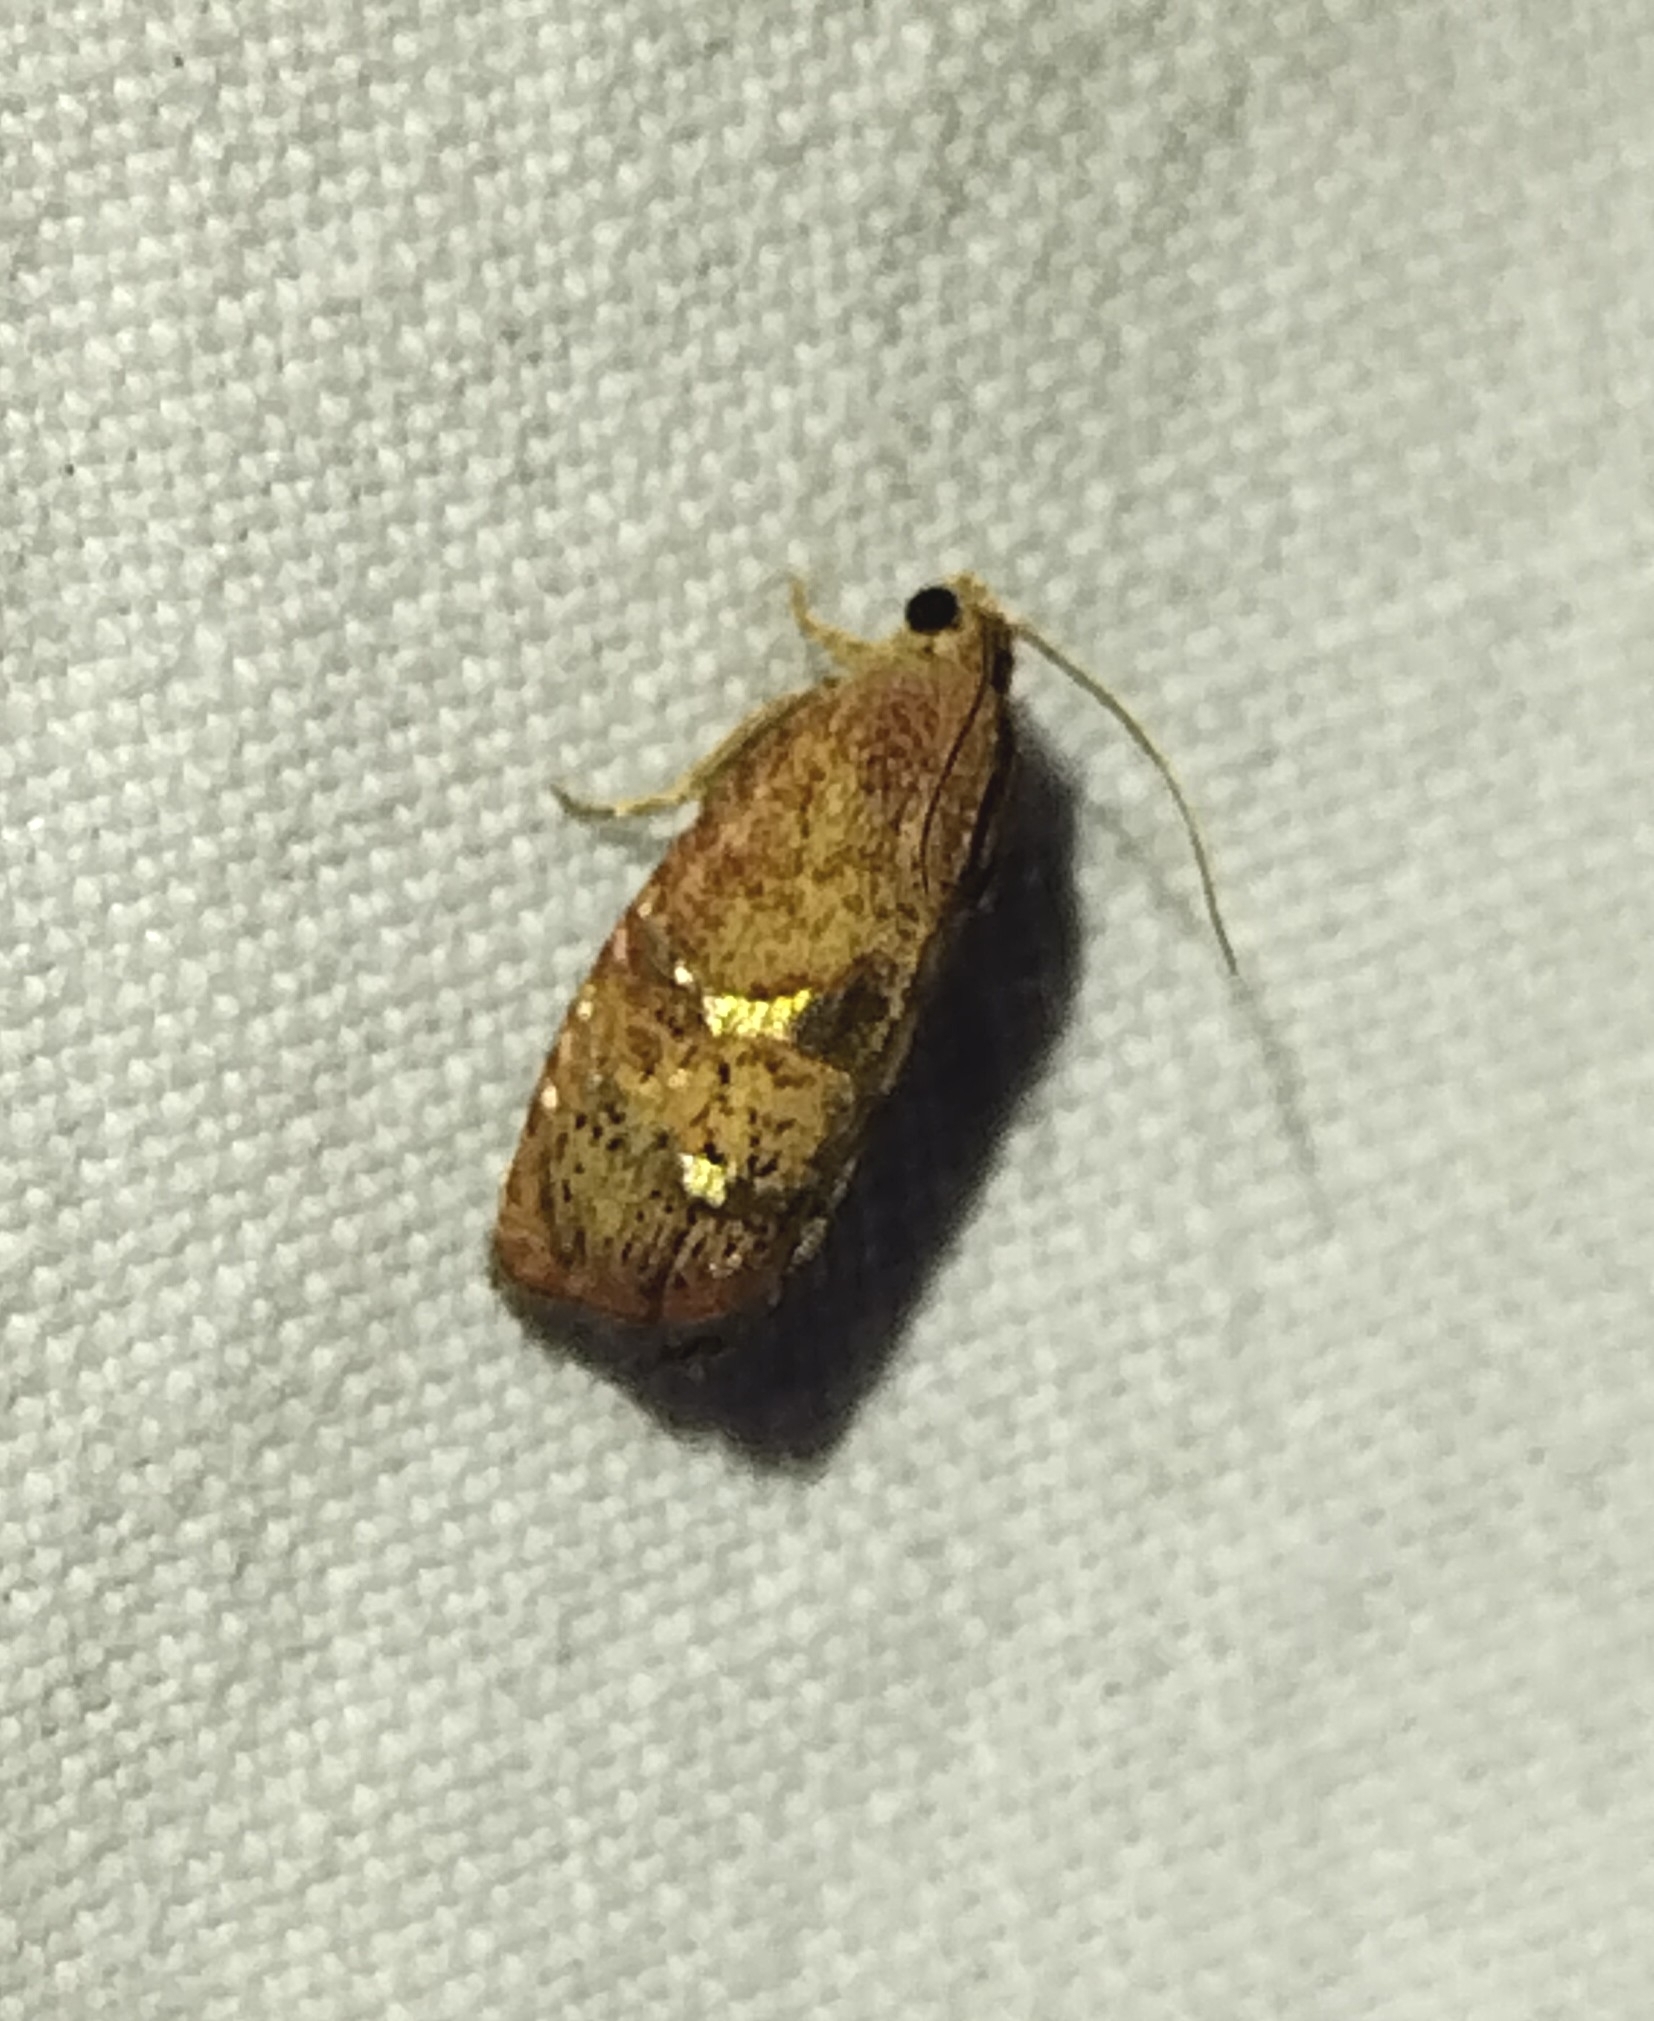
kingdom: Animalia
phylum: Arthropoda
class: Insecta
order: Lepidoptera
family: Tortricidae
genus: Cydia
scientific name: Cydia latiferreana
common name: Filbertworm moth
